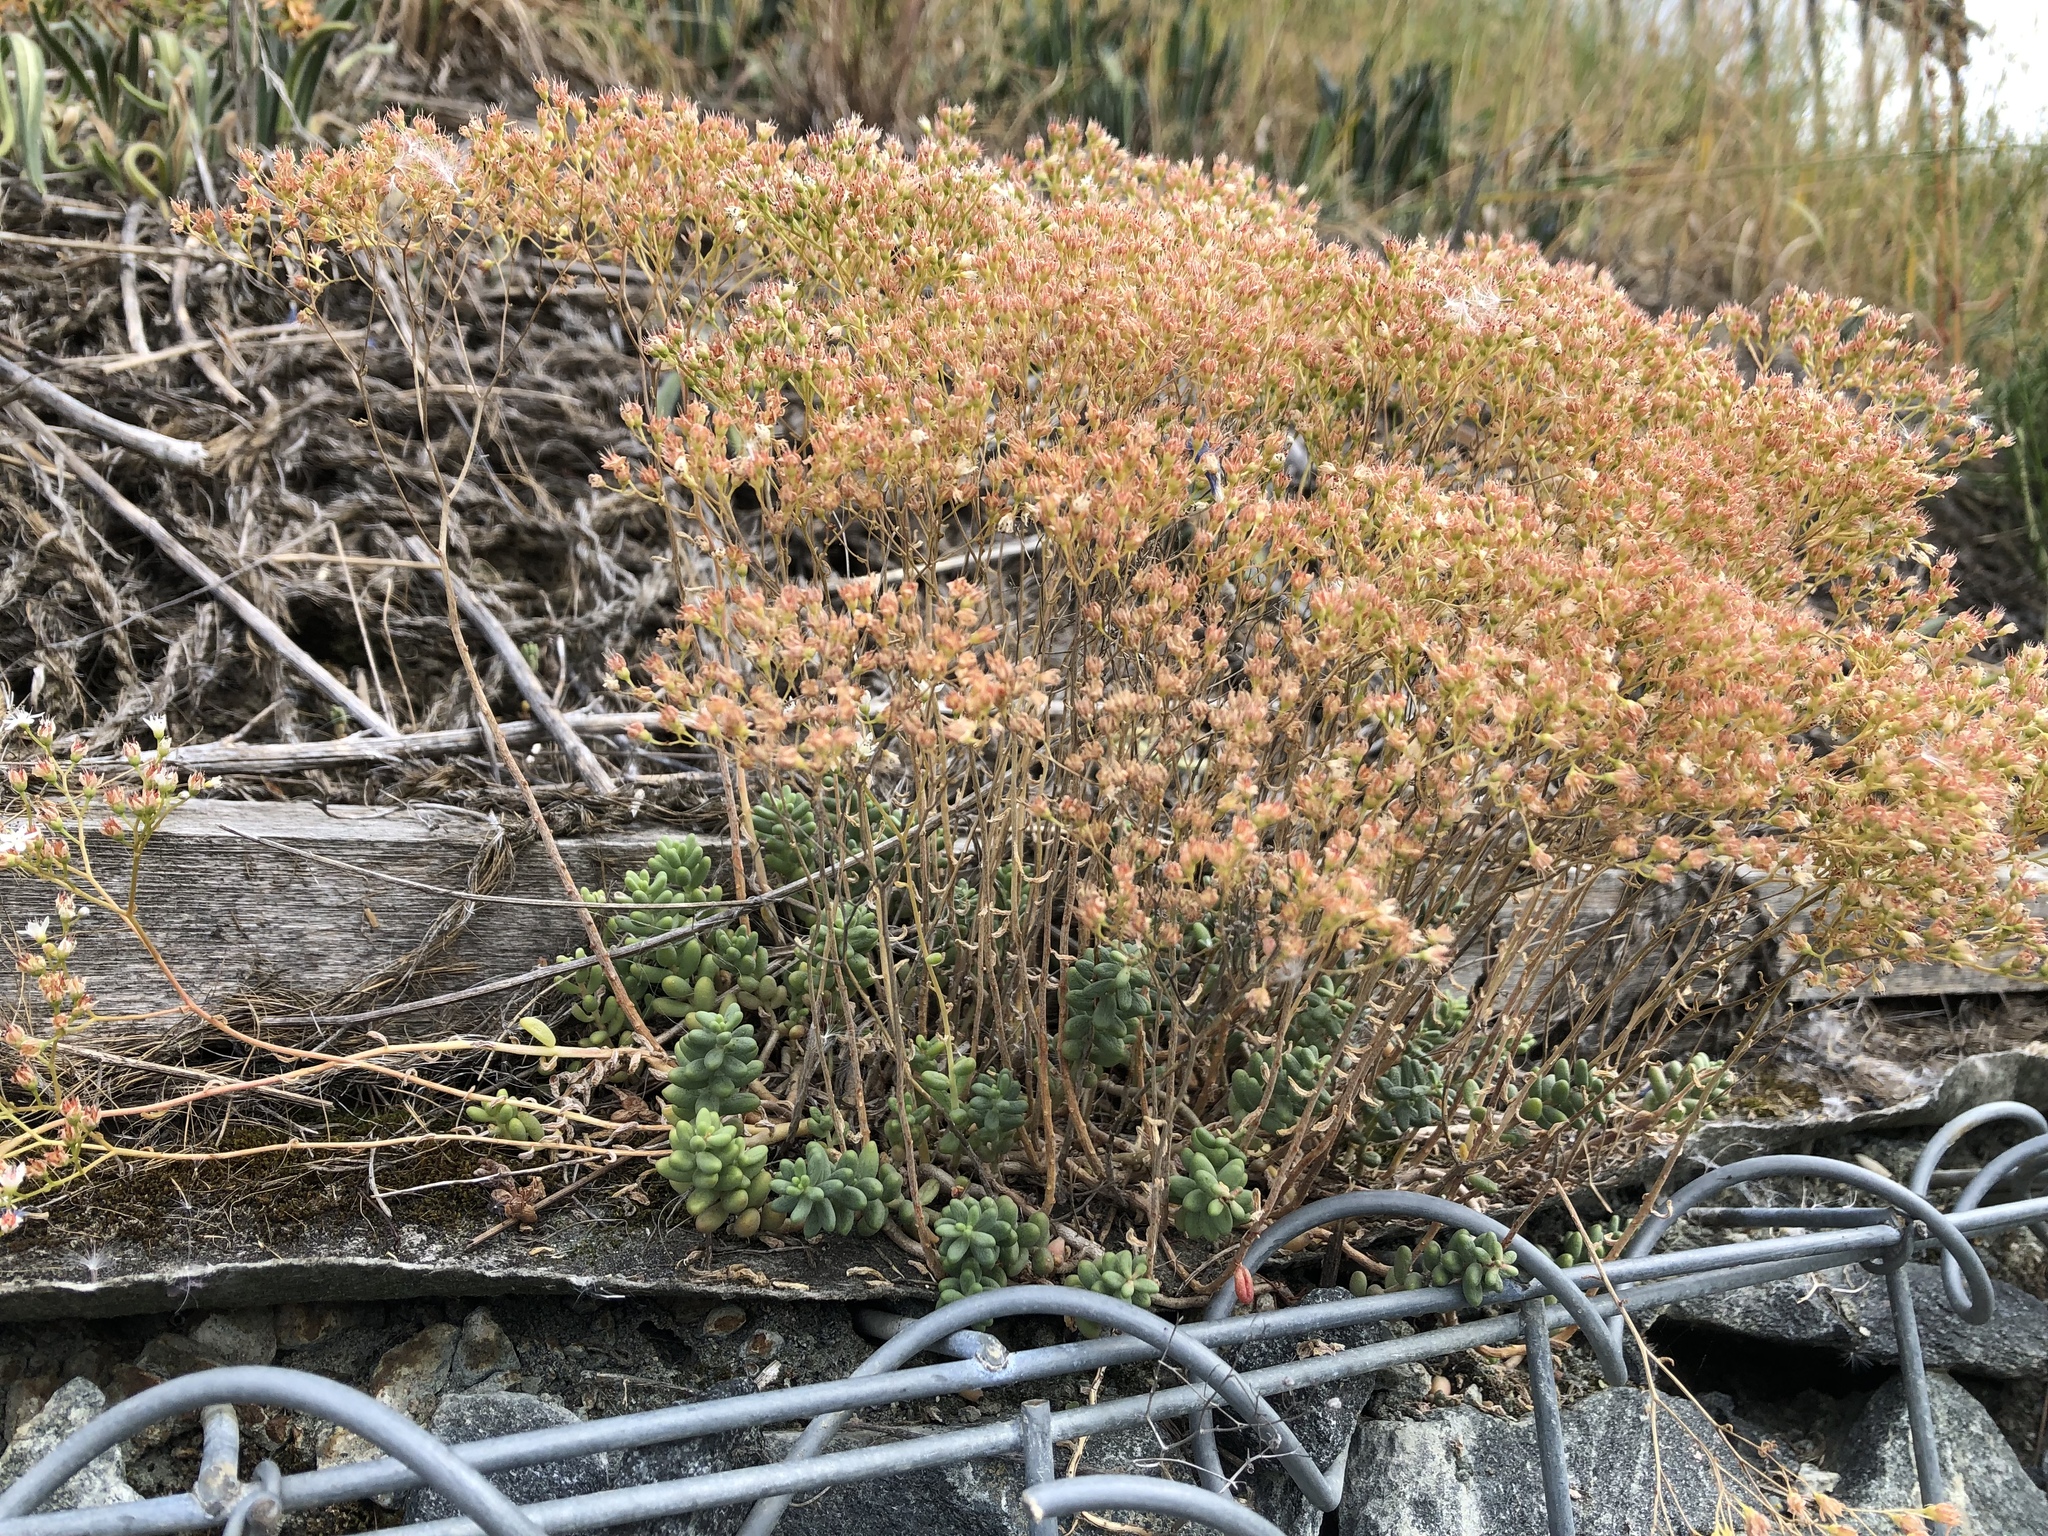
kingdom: Plantae
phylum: Tracheophyta
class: Magnoliopsida
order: Saxifragales
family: Crassulaceae
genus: Sedum
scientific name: Sedum album
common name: White stonecrop
